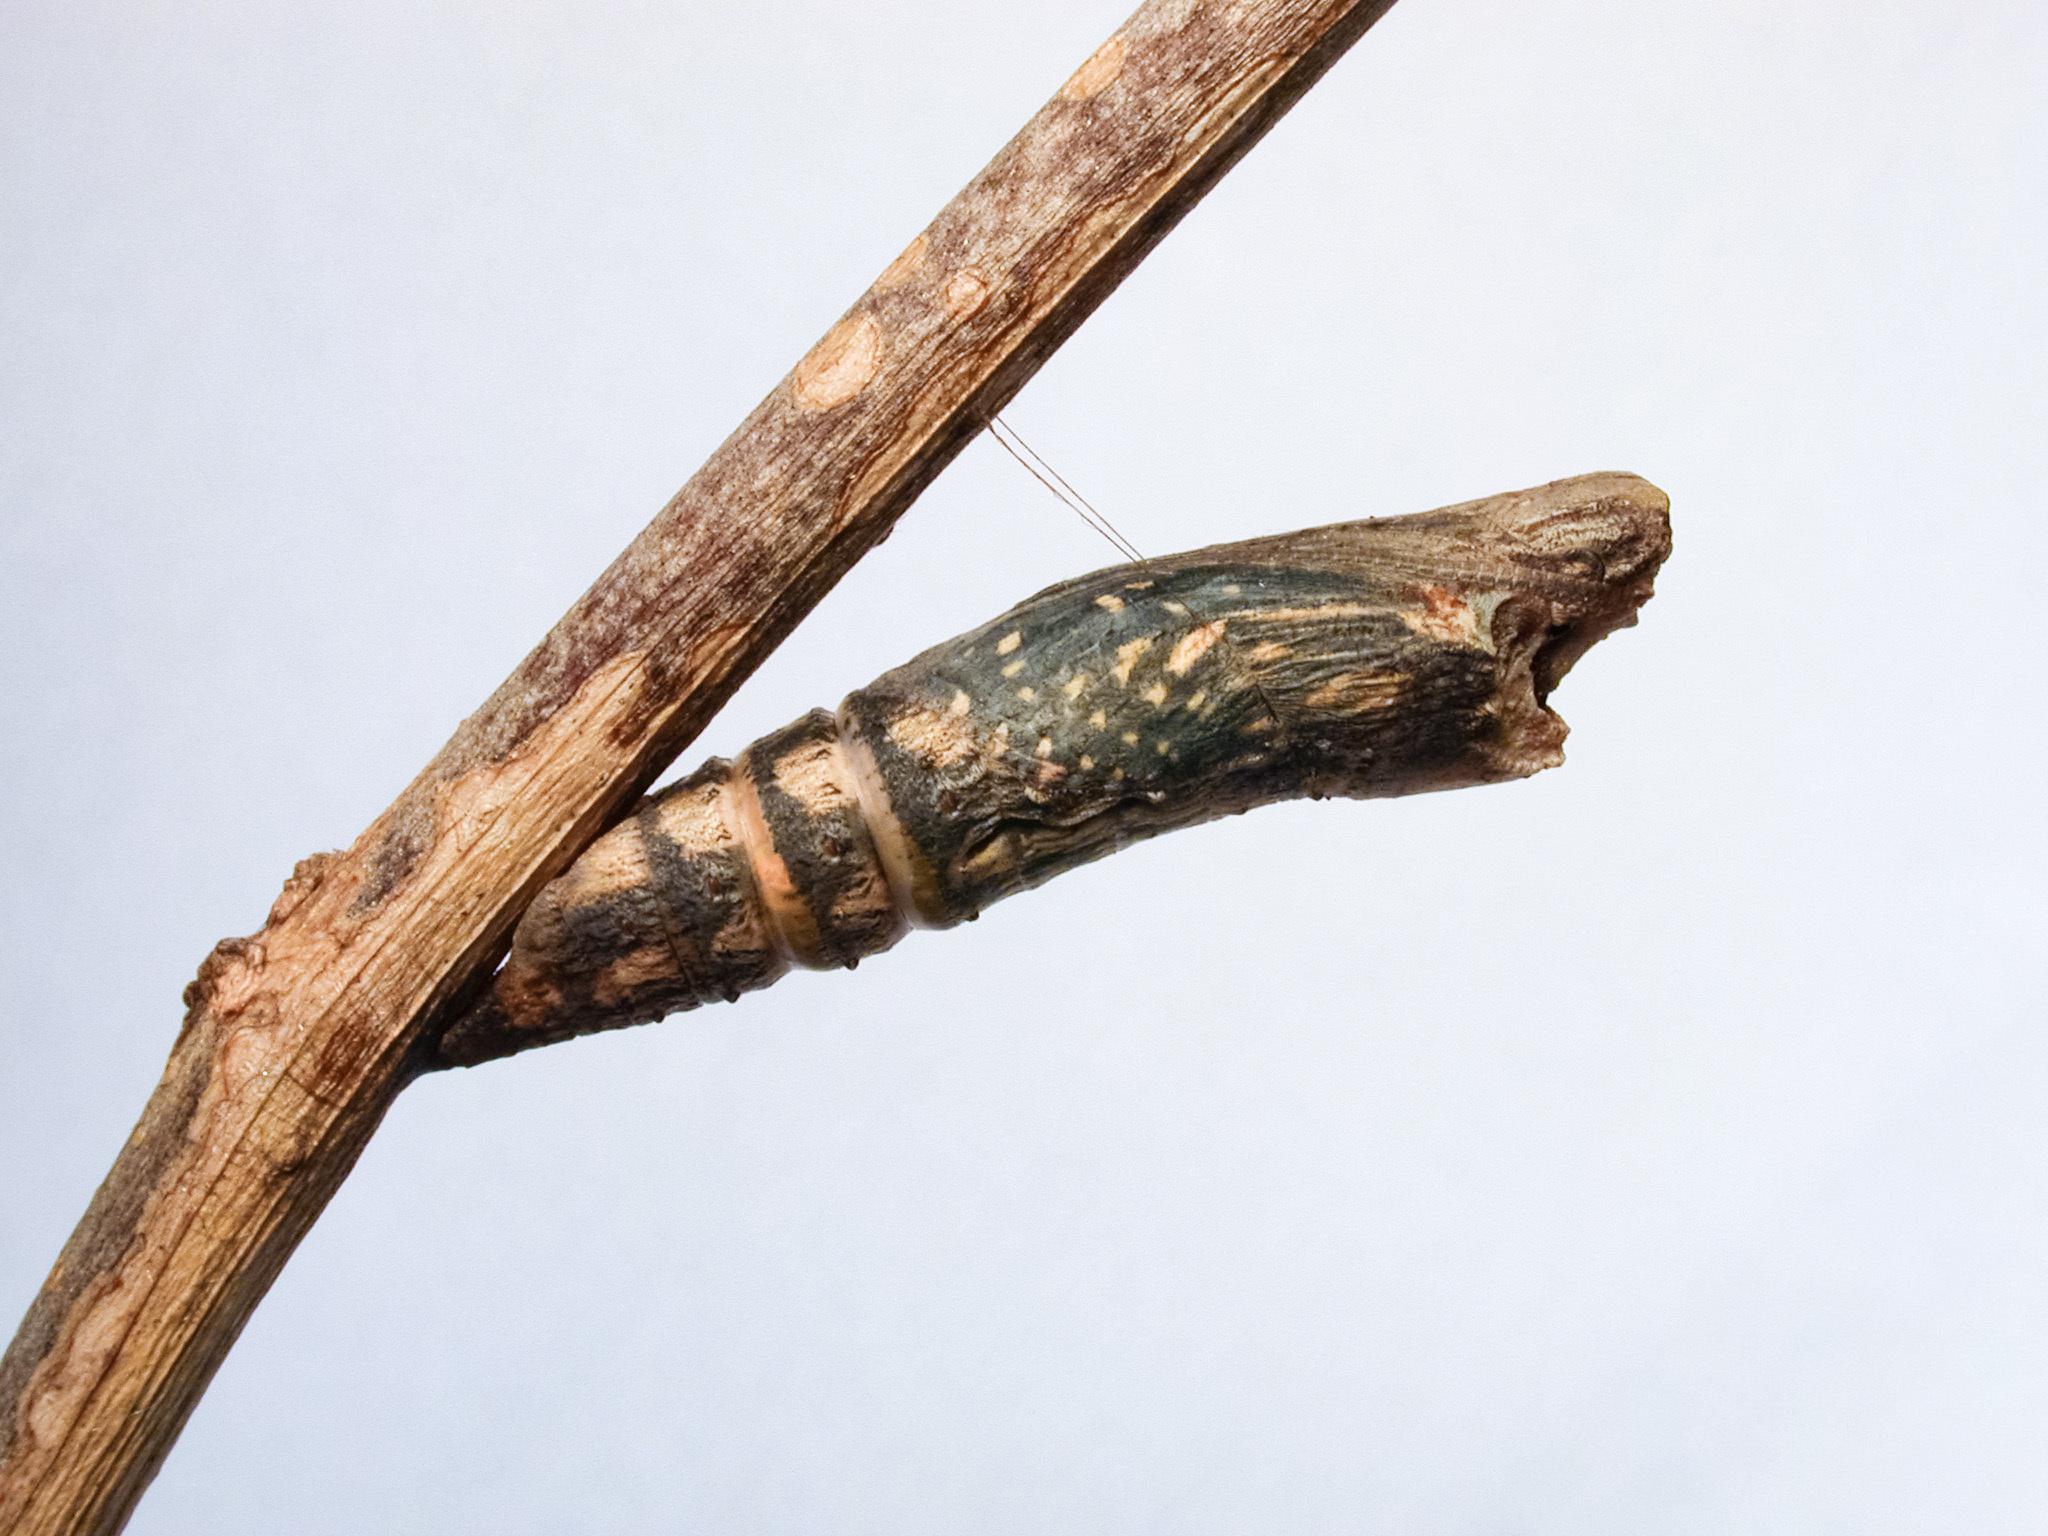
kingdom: Animalia
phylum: Arthropoda
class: Insecta
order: Lepidoptera
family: Papilionidae
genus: Chilasa
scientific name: Chilasa clytia
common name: Common mime
